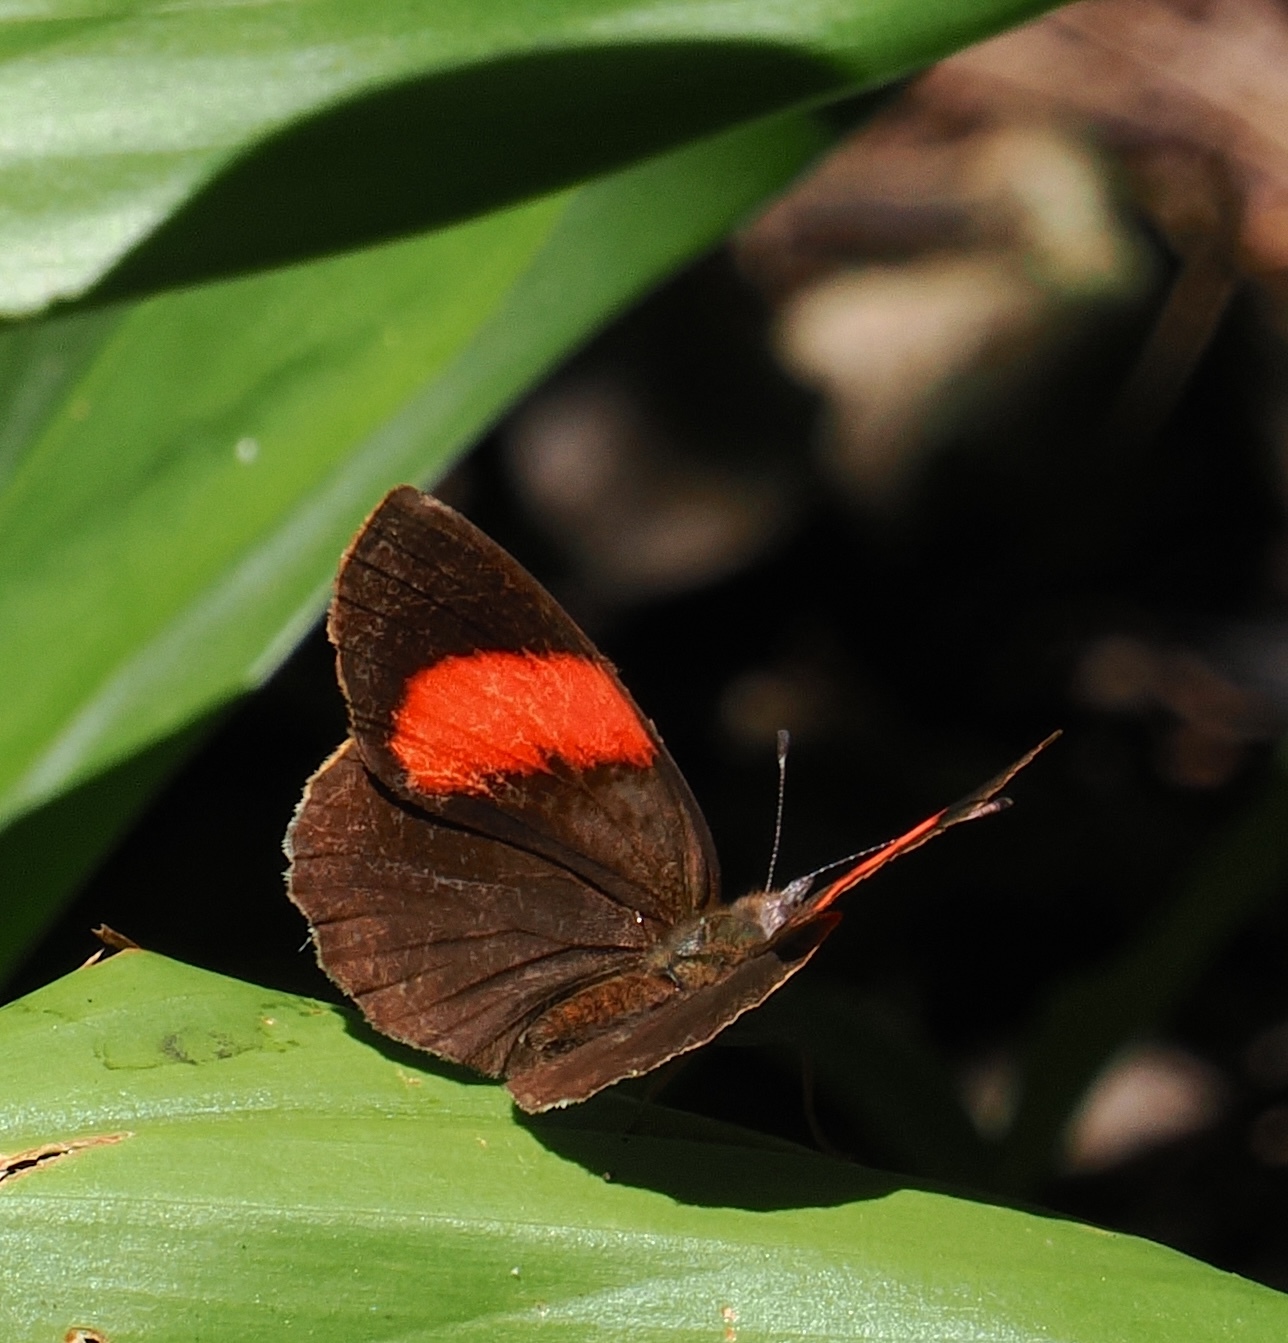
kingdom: Animalia
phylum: Arthropoda
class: Insecta
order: Lepidoptera
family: Nymphalidae
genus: Haematera
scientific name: Haematera pyrame
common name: Blind eighty-eight
